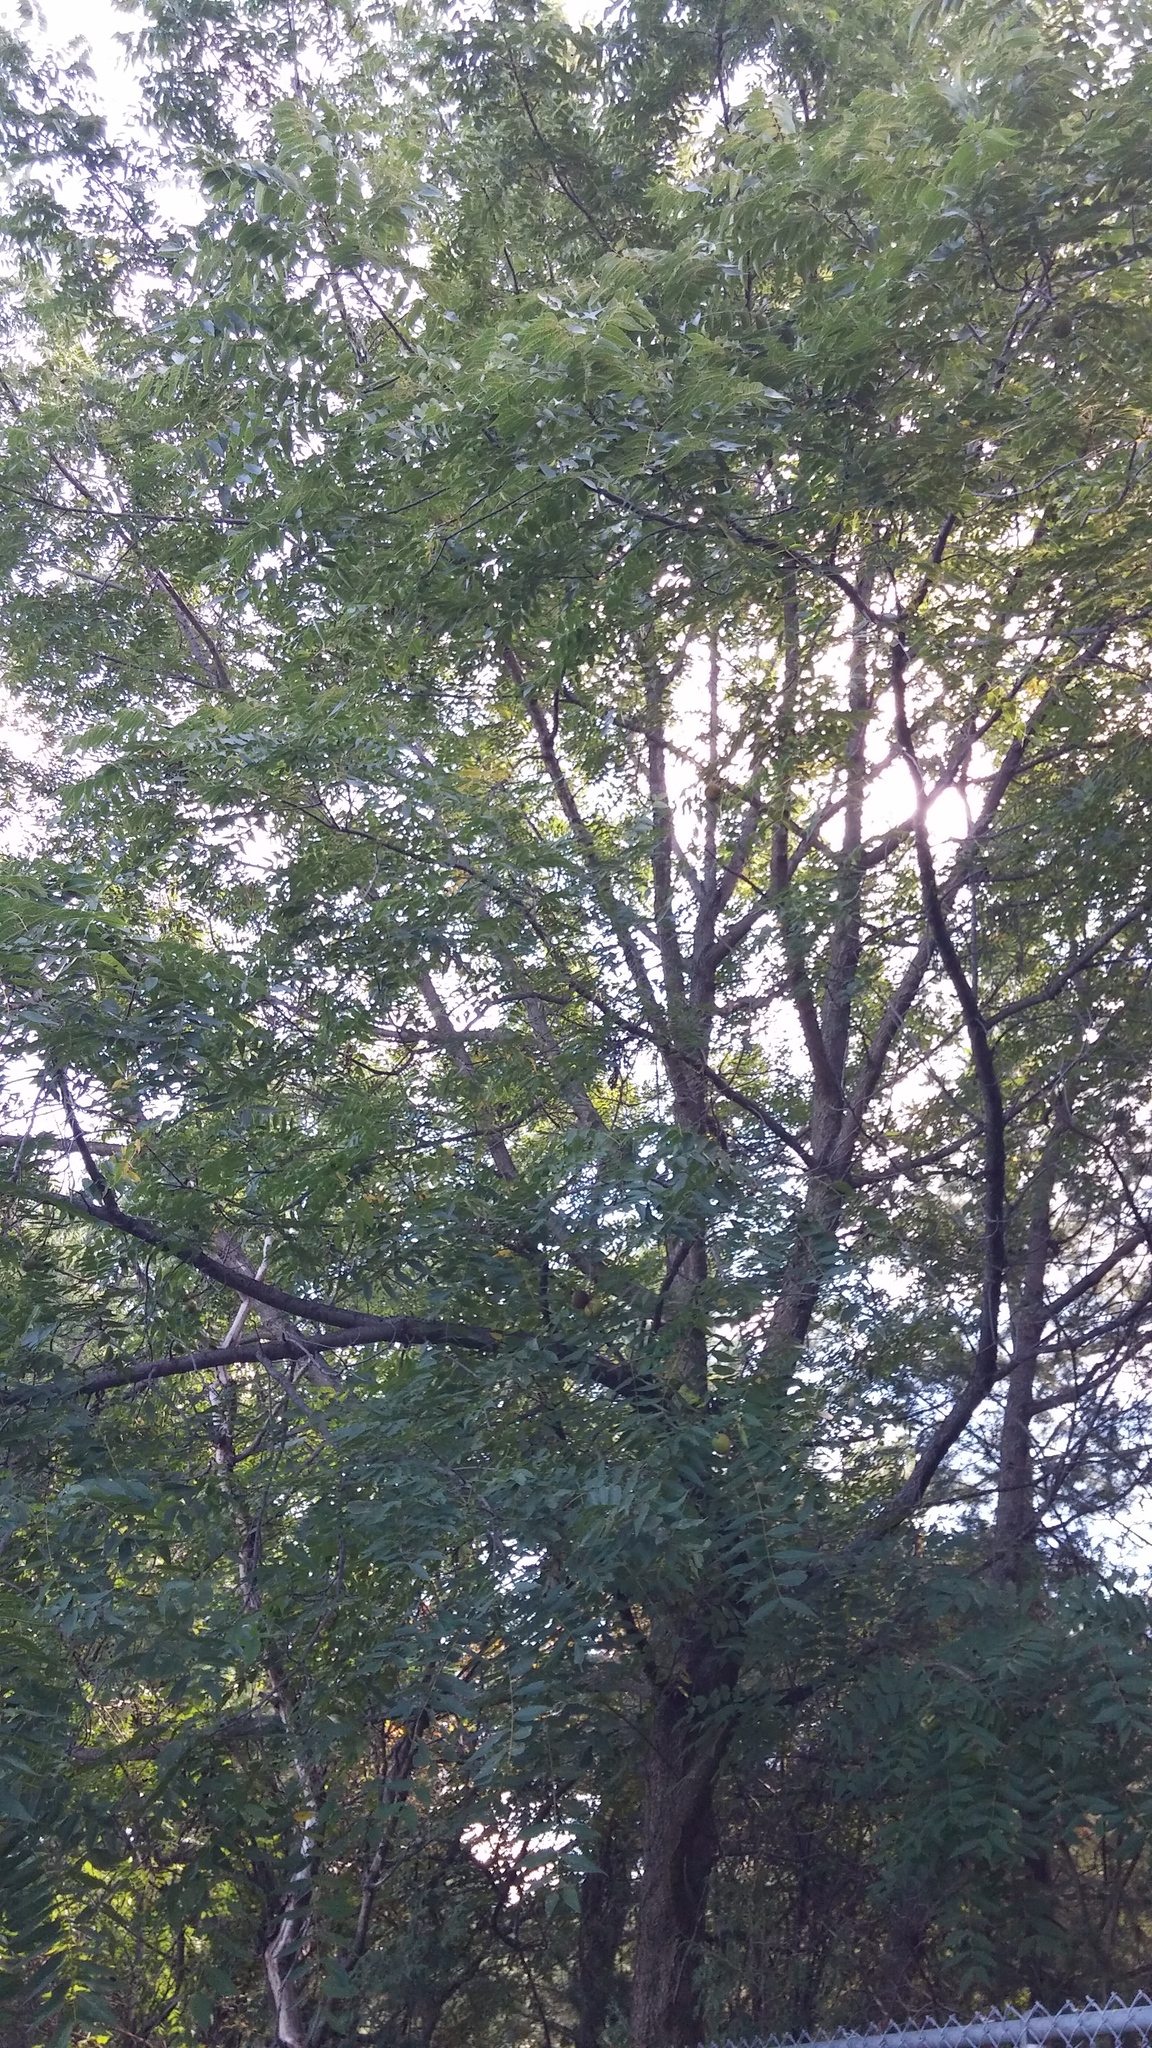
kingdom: Plantae
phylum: Tracheophyta
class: Magnoliopsida
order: Fagales
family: Juglandaceae
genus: Juglans
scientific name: Juglans nigra
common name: Black walnut
